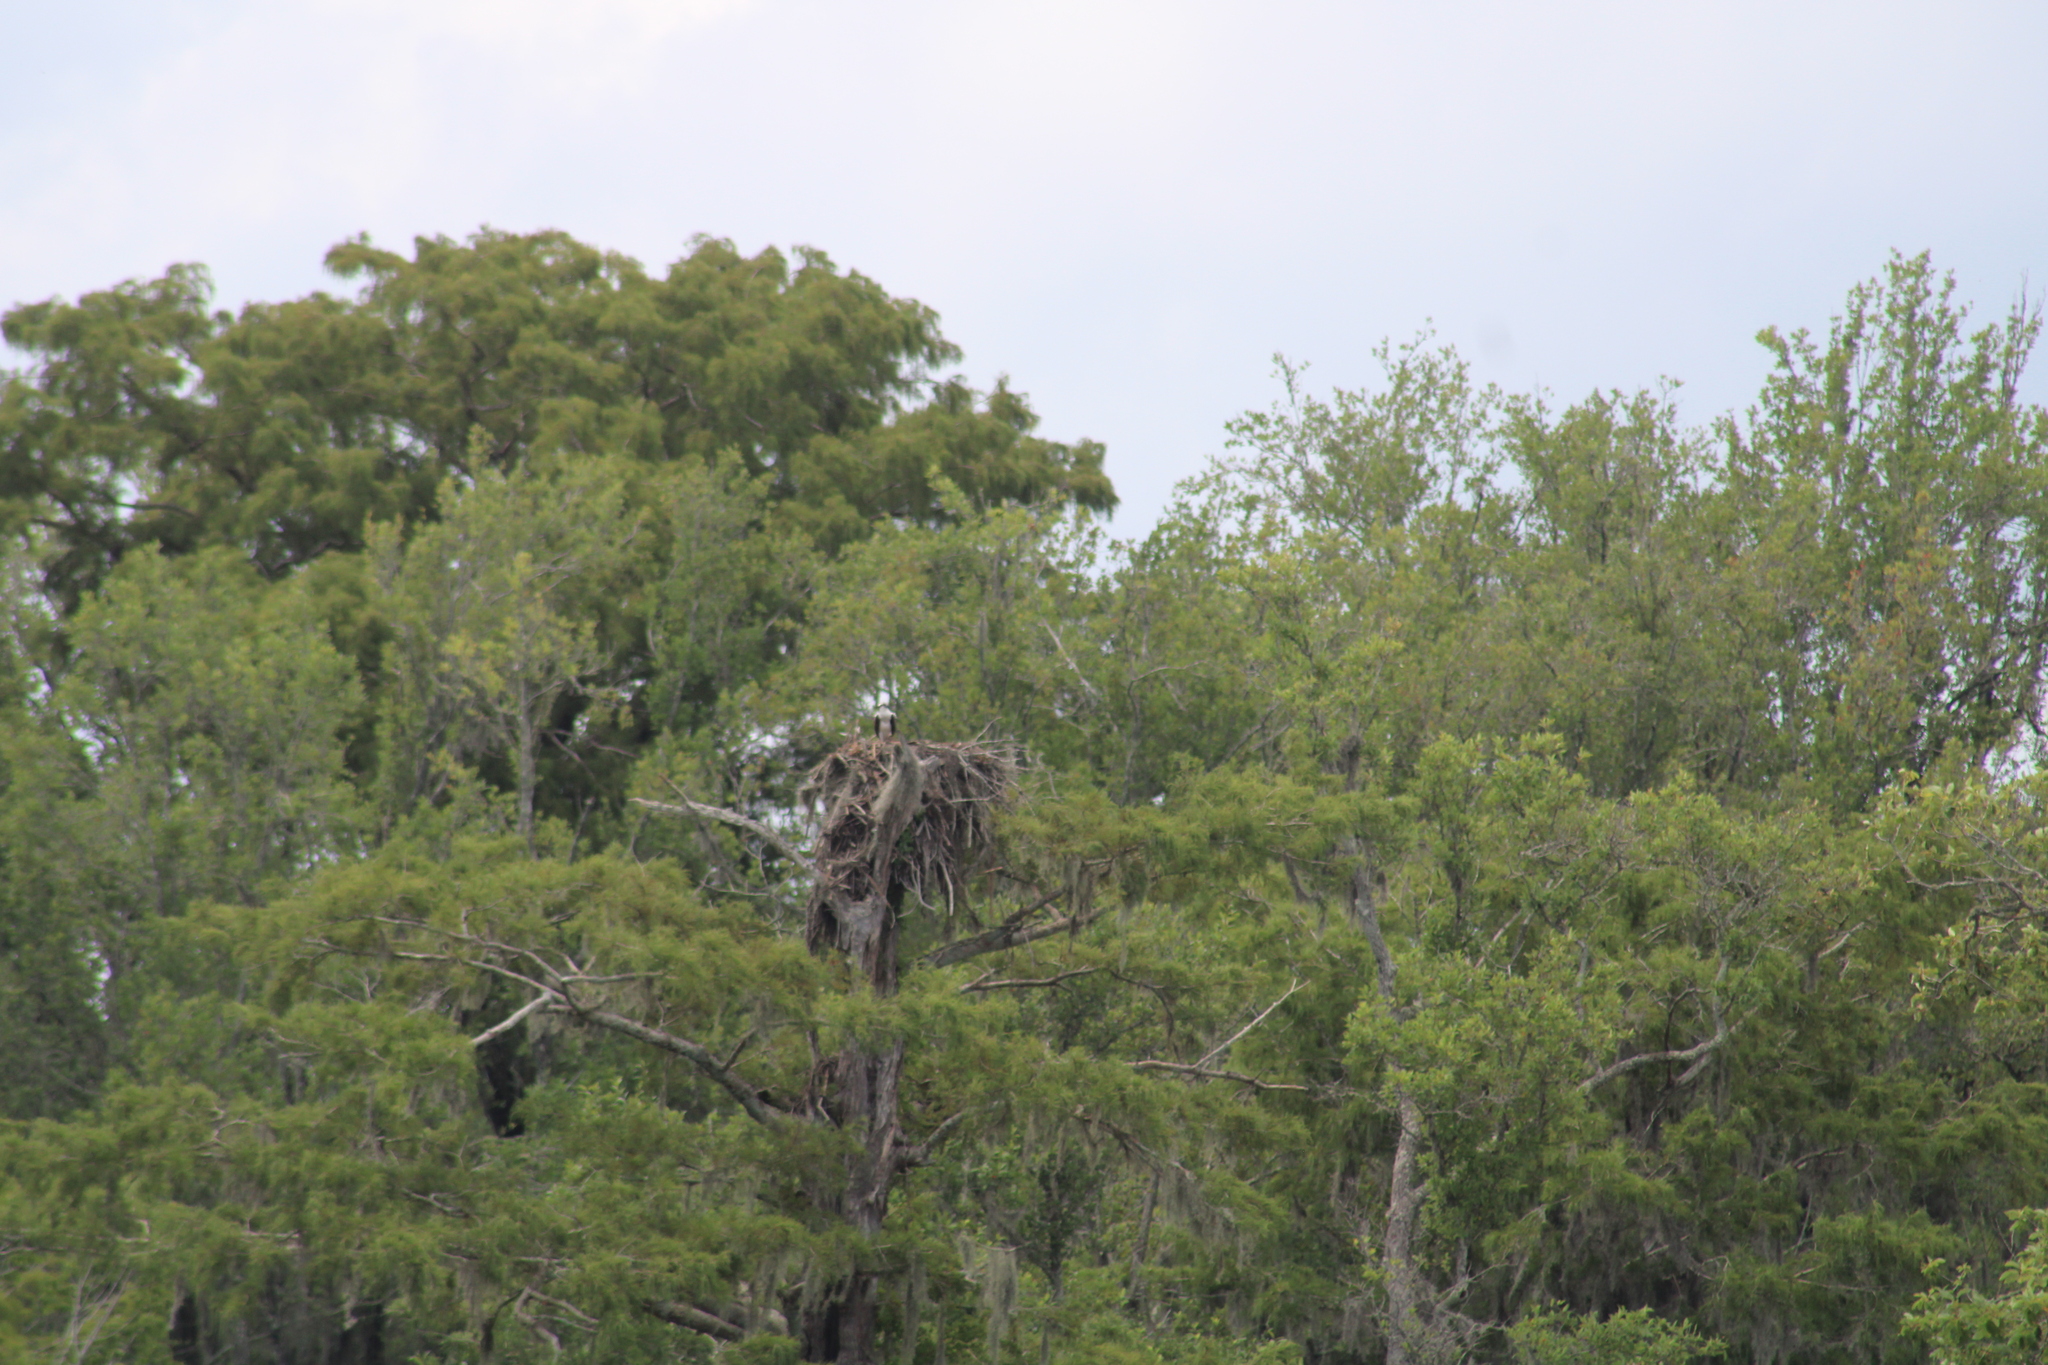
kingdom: Animalia
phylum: Chordata
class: Aves
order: Accipitriformes
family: Pandionidae
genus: Pandion
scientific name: Pandion haliaetus
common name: Osprey
